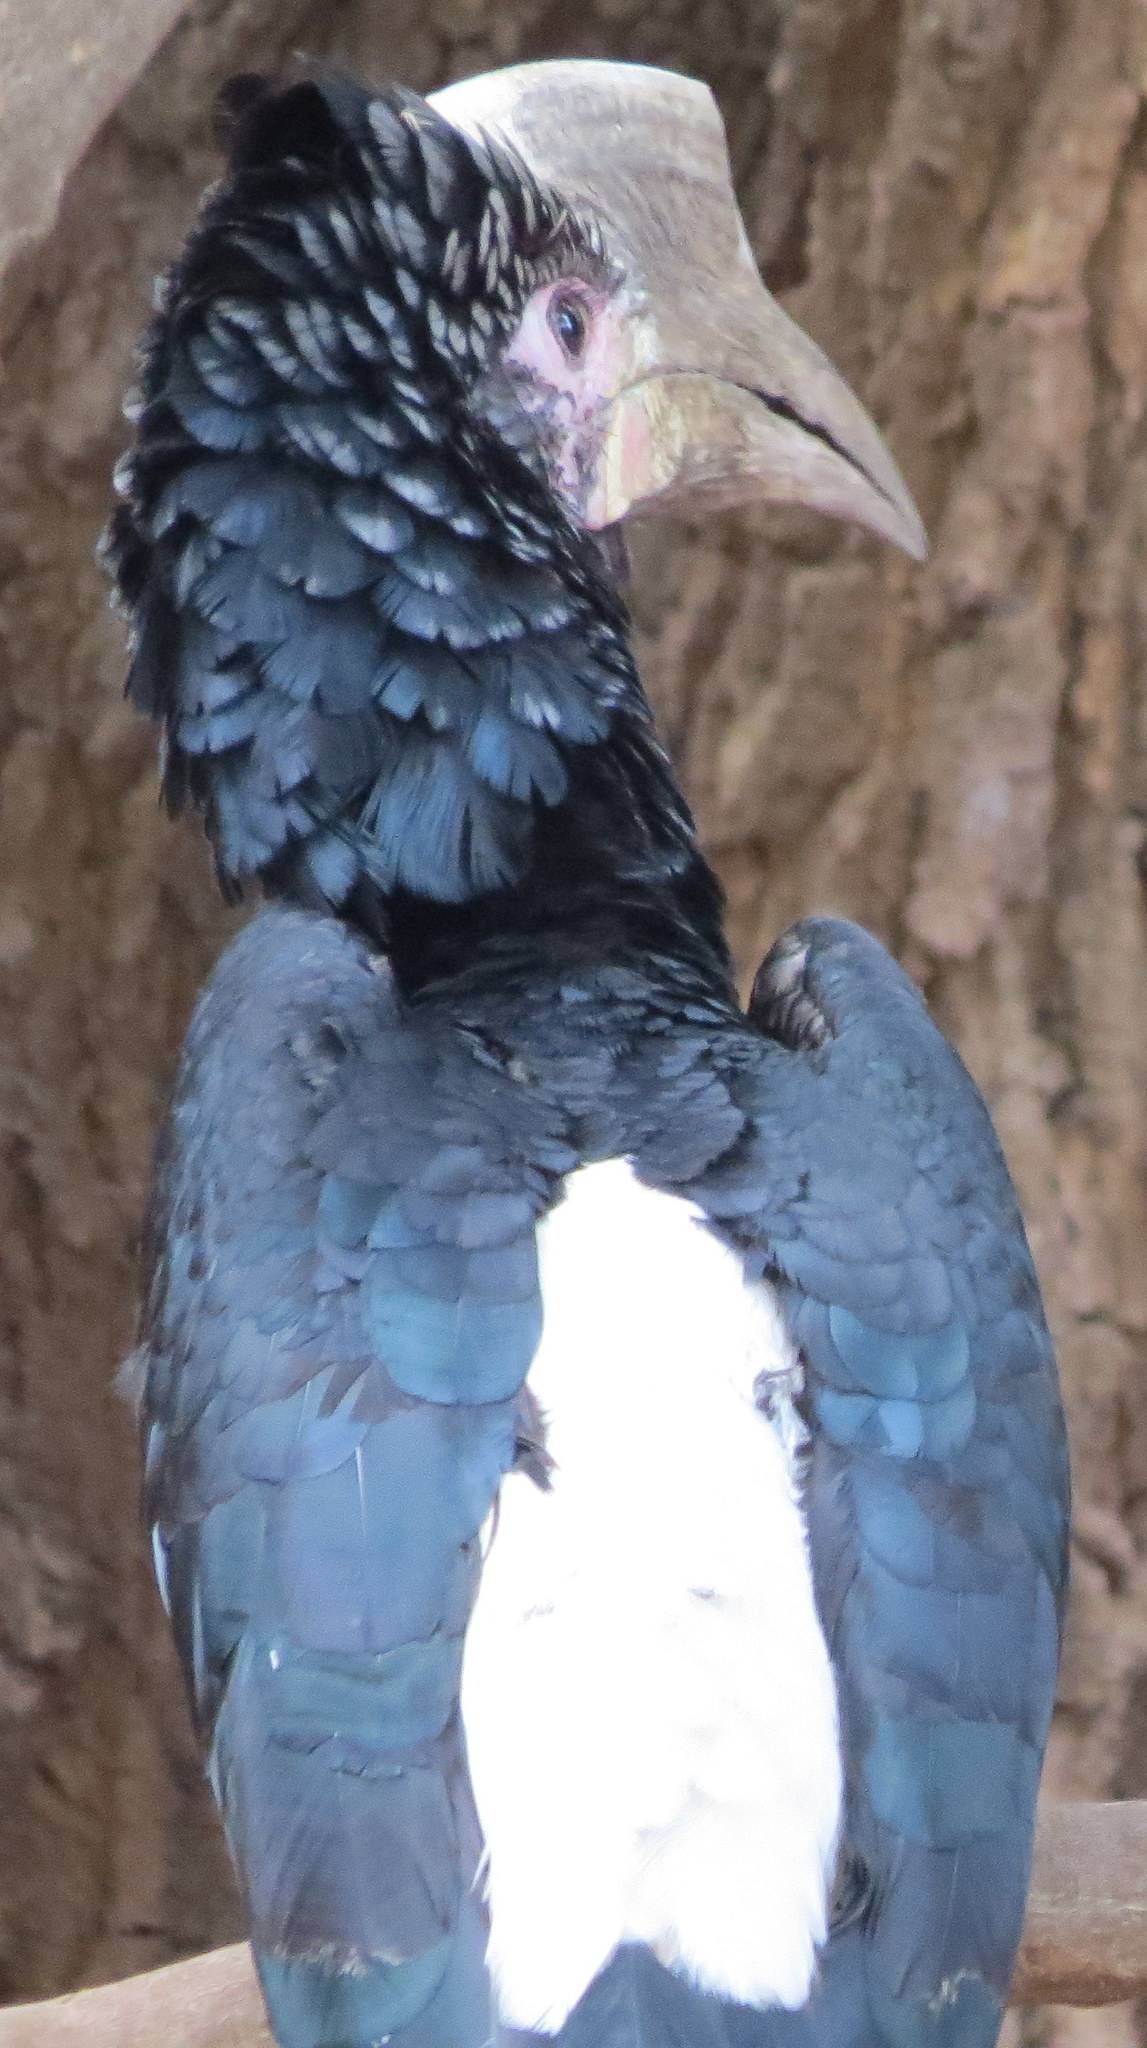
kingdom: Animalia
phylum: Chordata
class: Aves
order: Bucerotiformes
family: Bucerotidae
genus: Bycanistes
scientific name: Bycanistes brevis
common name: Silvery-cheeked hornbill
